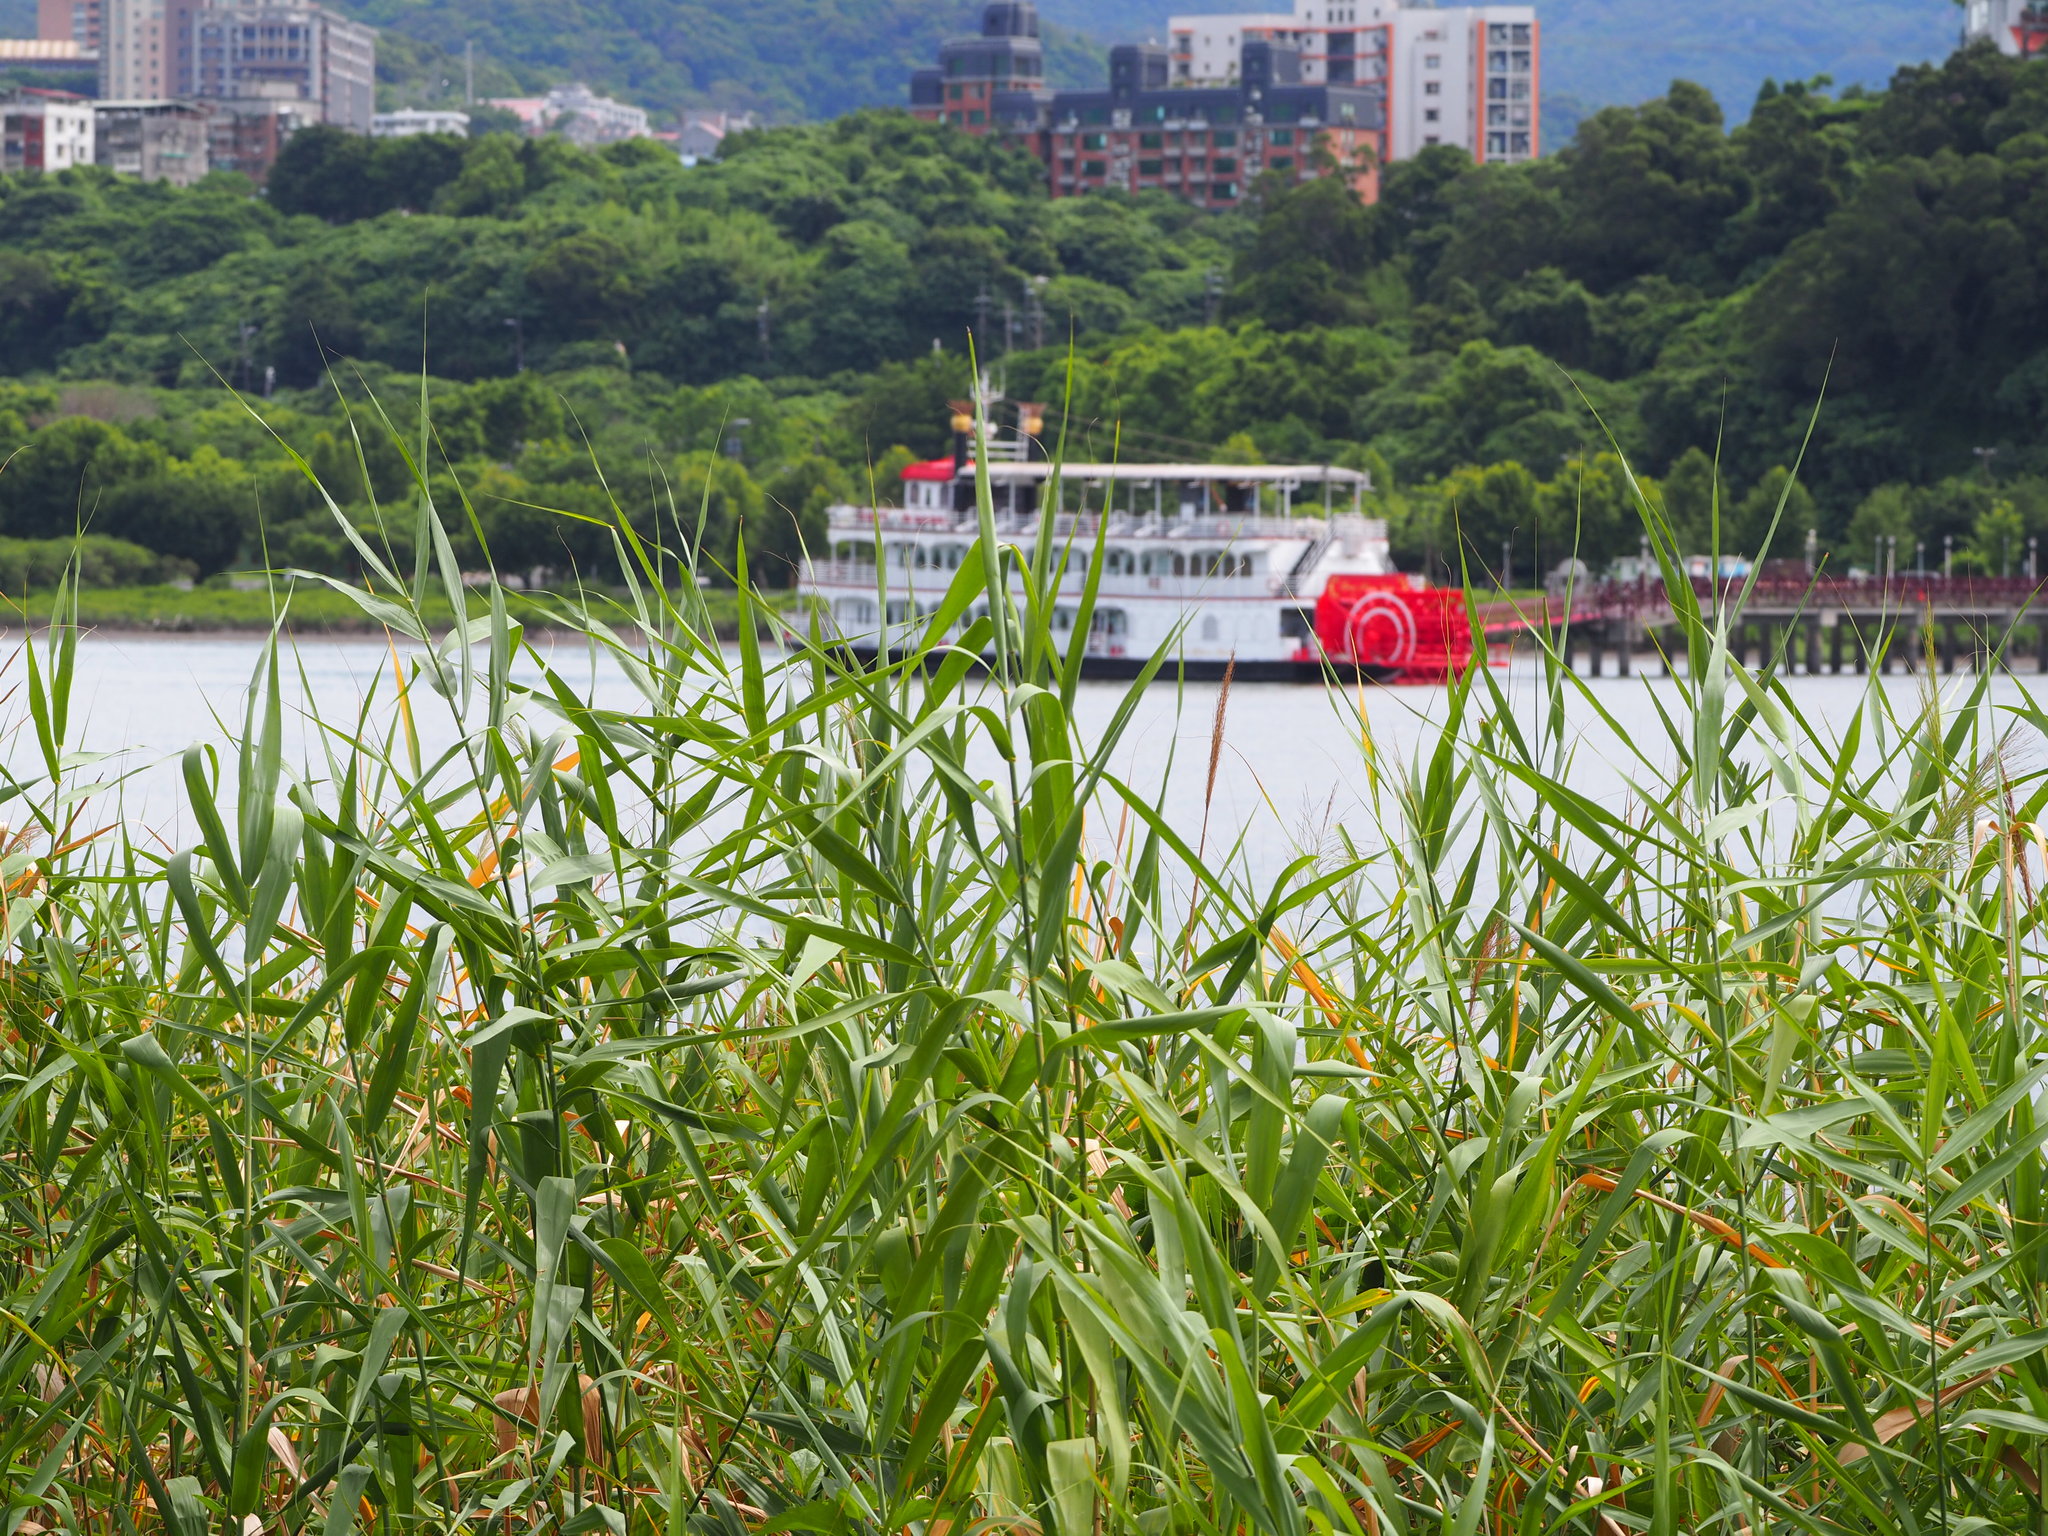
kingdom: Plantae
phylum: Tracheophyta
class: Liliopsida
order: Poales
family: Poaceae
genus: Phragmites
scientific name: Phragmites australis
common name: Common reed
